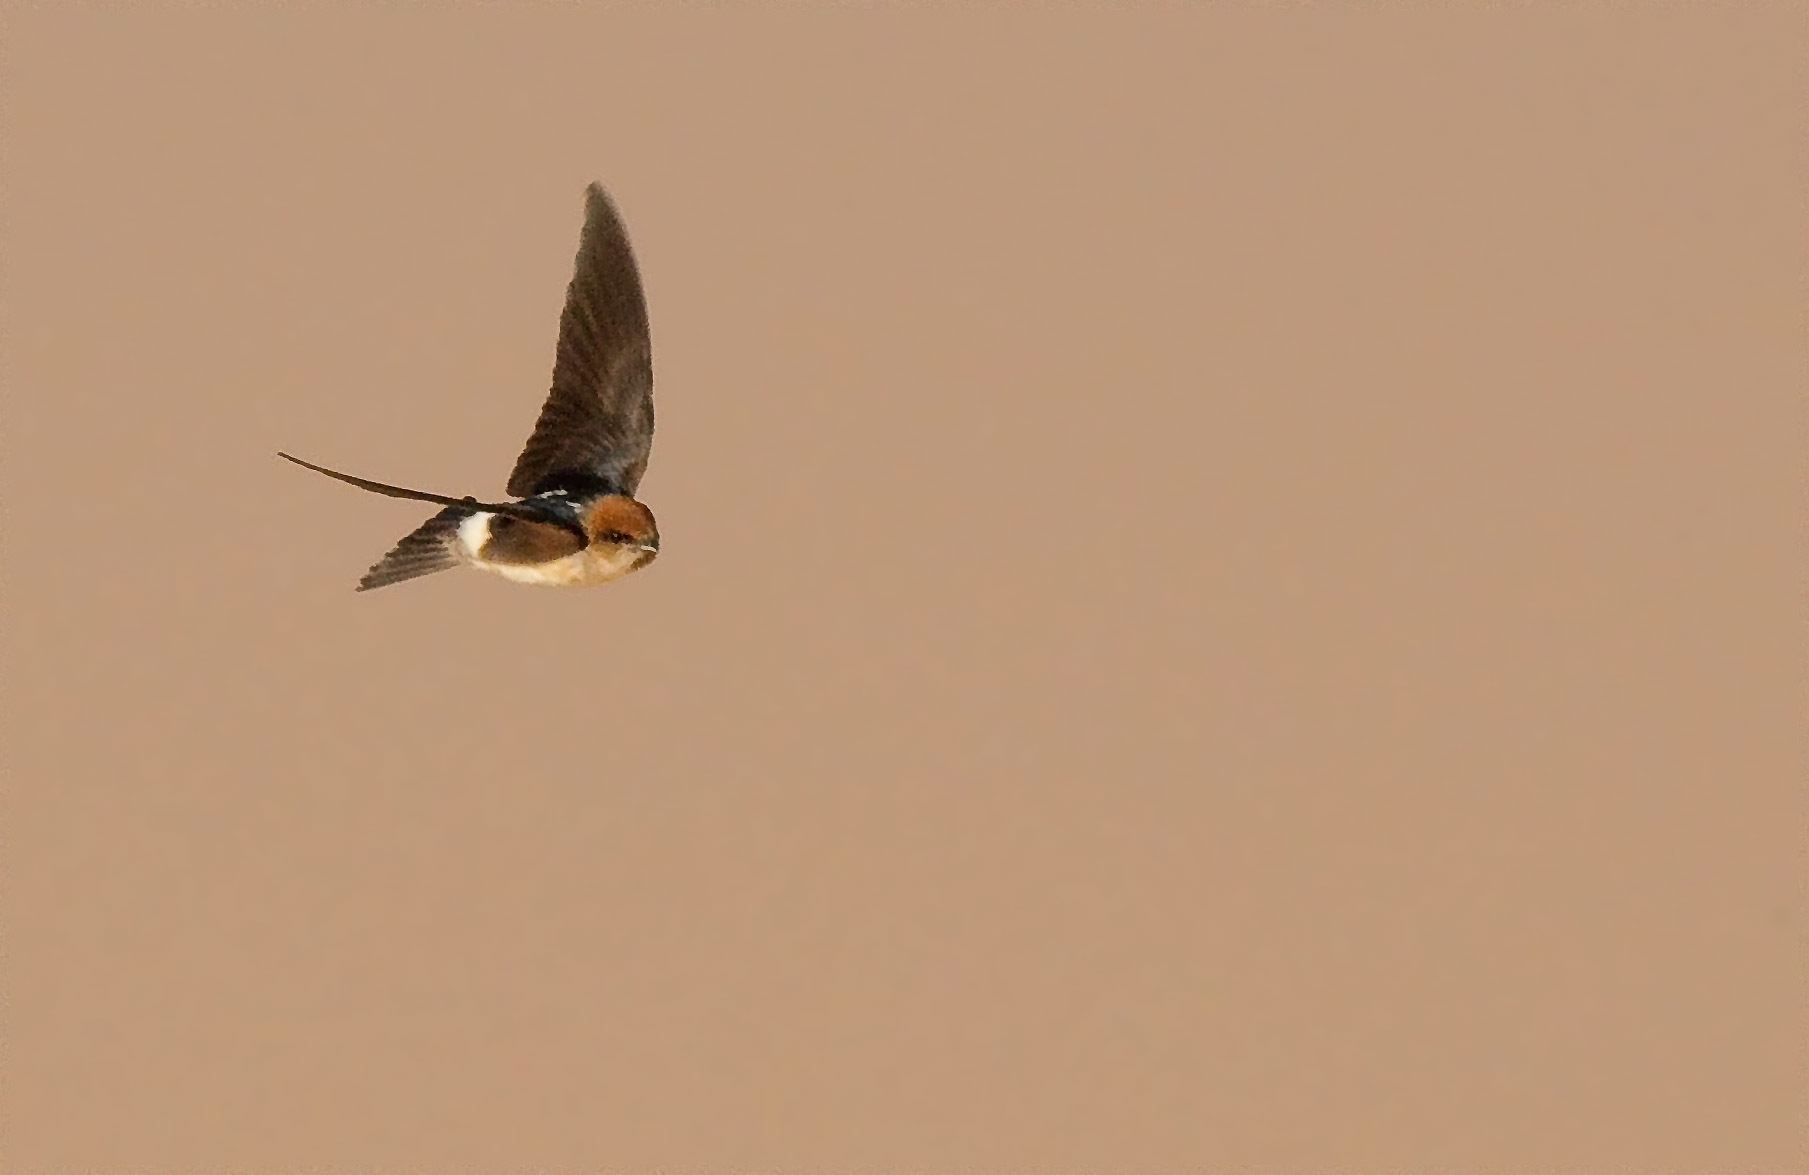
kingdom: Animalia
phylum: Chordata
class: Aves
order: Passeriformes
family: Hirundinidae
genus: Petrochelidon
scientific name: Petrochelidon ariel
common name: Fairy martin
